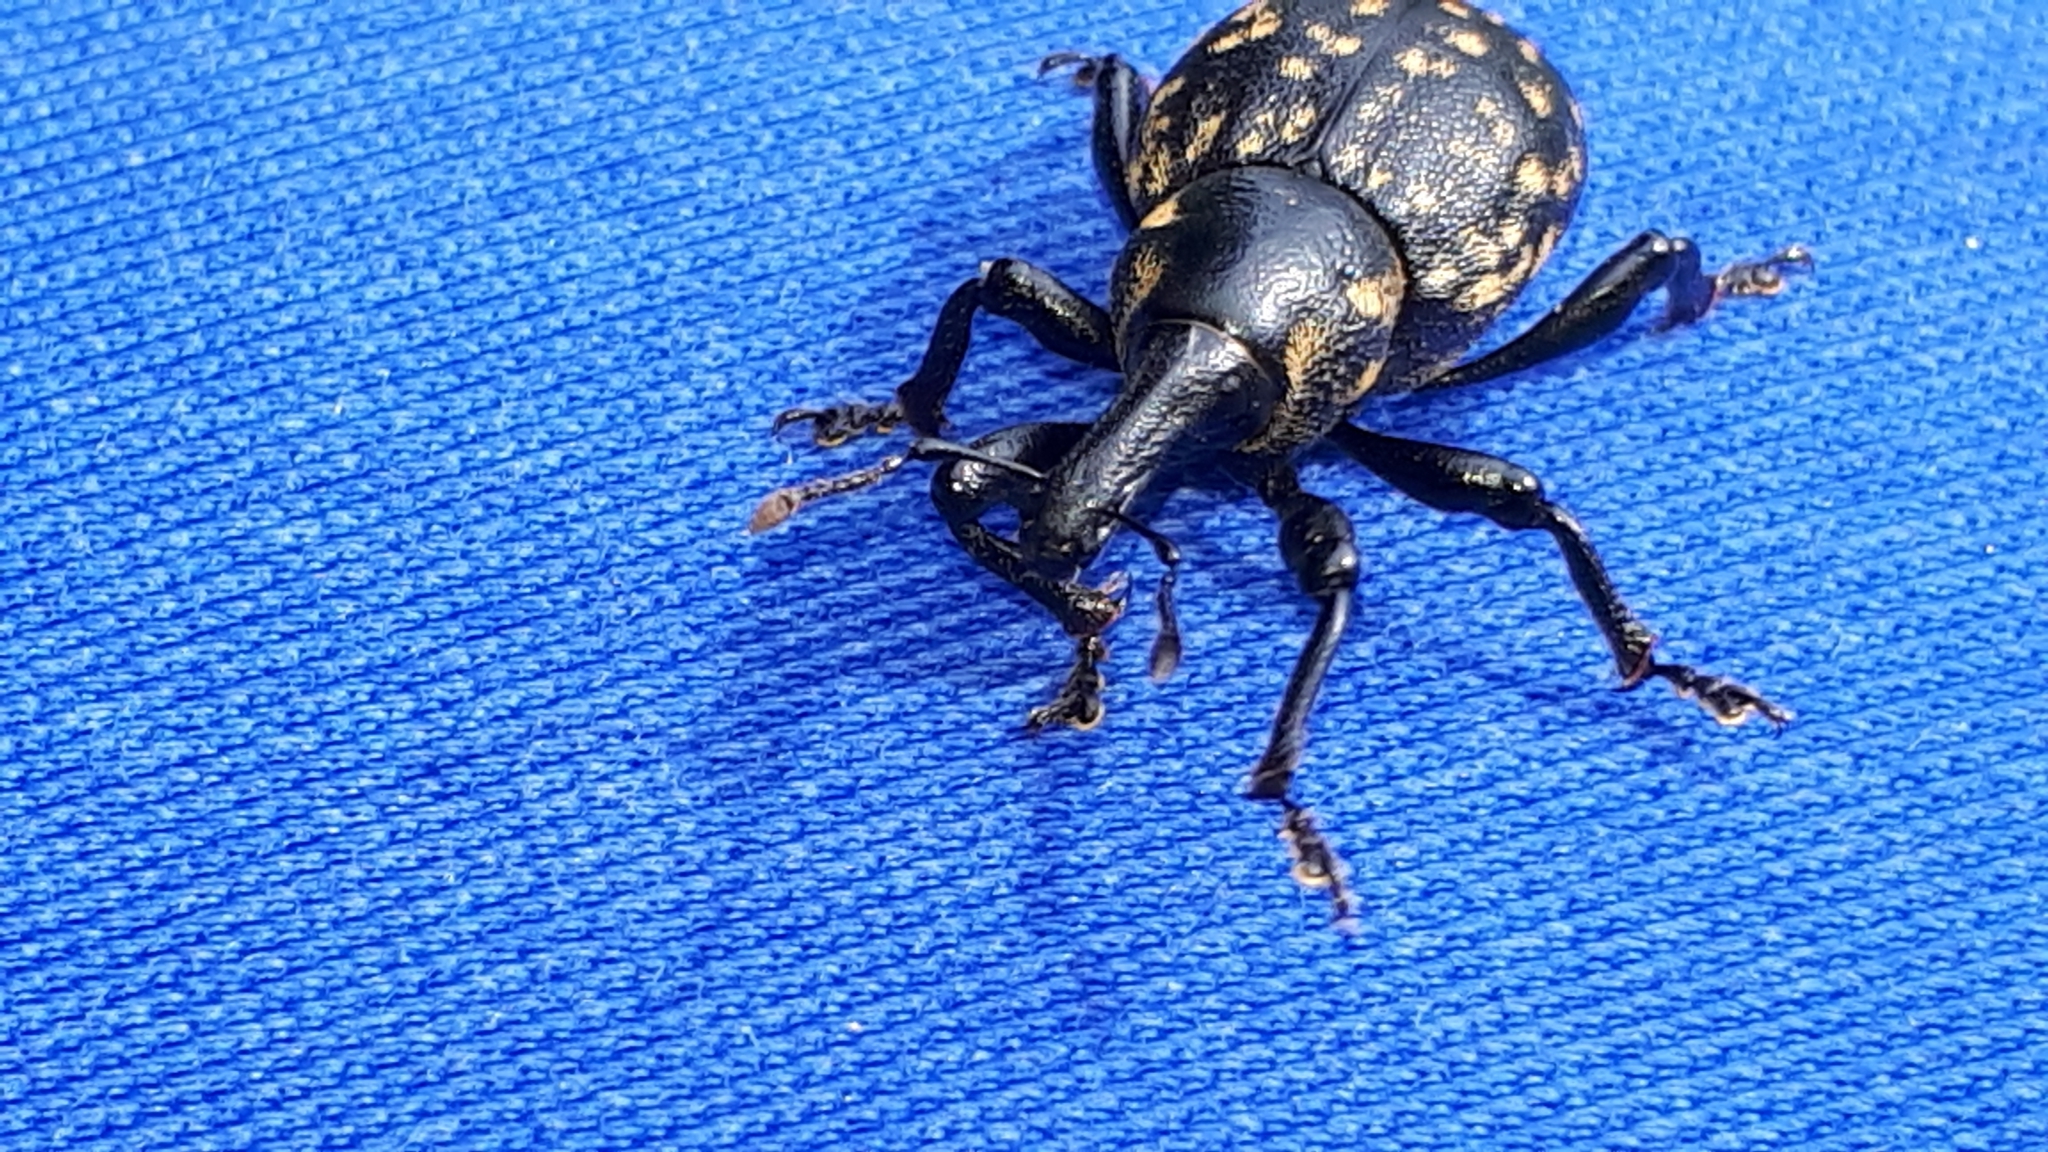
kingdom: Animalia
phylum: Arthropoda
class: Insecta
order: Coleoptera
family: Curculionidae
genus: Liparus
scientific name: Liparus glabrirostris
